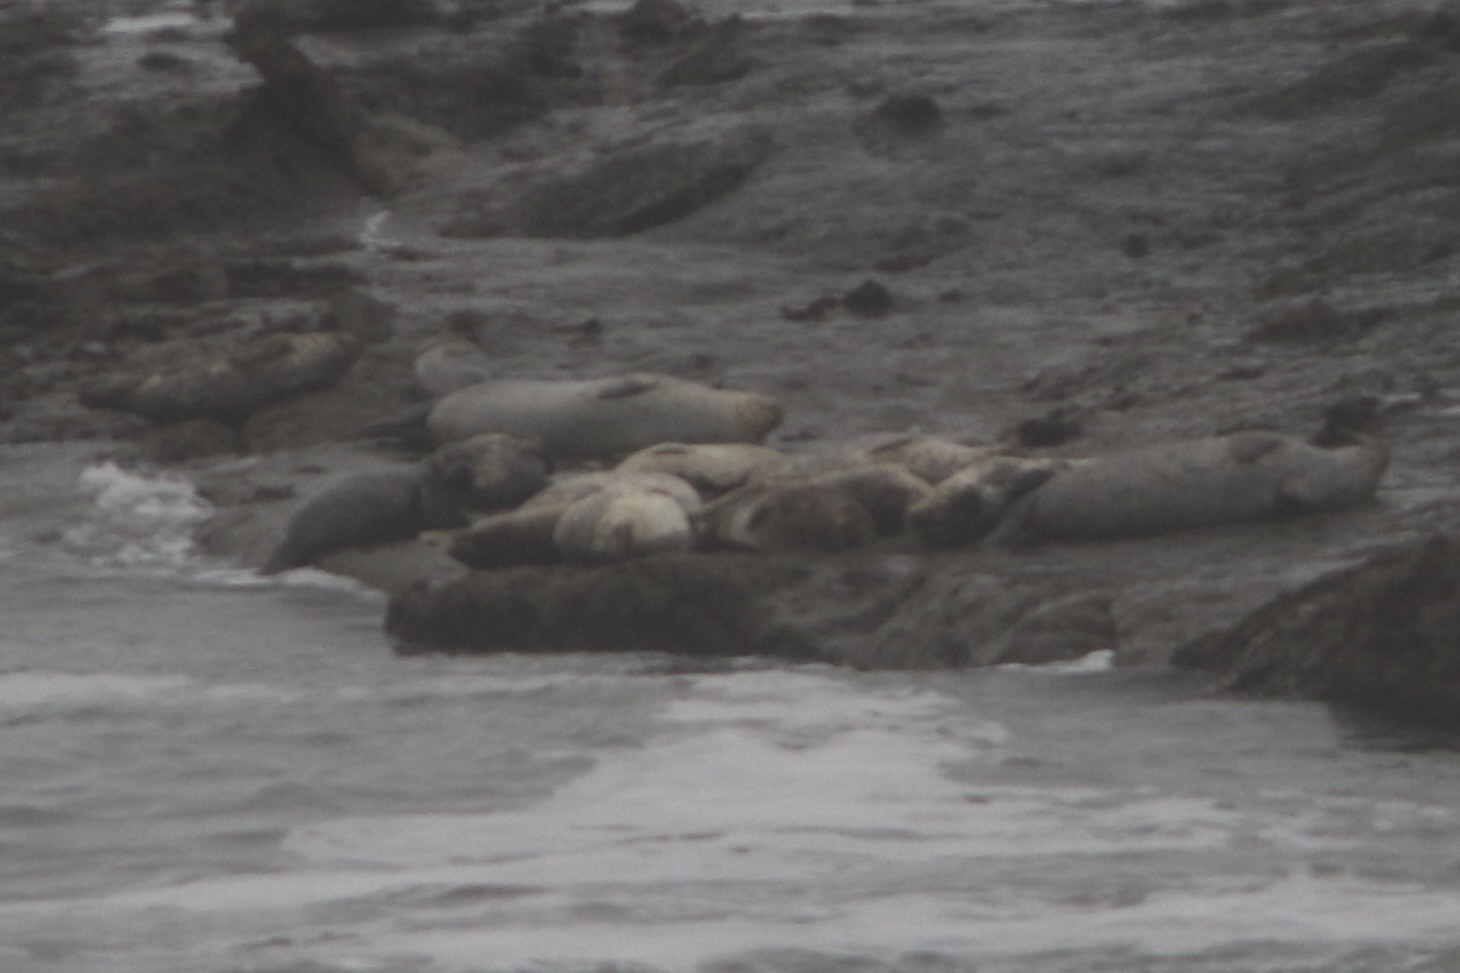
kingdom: Animalia
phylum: Chordata
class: Mammalia
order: Carnivora
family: Phocidae
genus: Phoca
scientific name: Phoca vitulina
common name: Harbor seal
